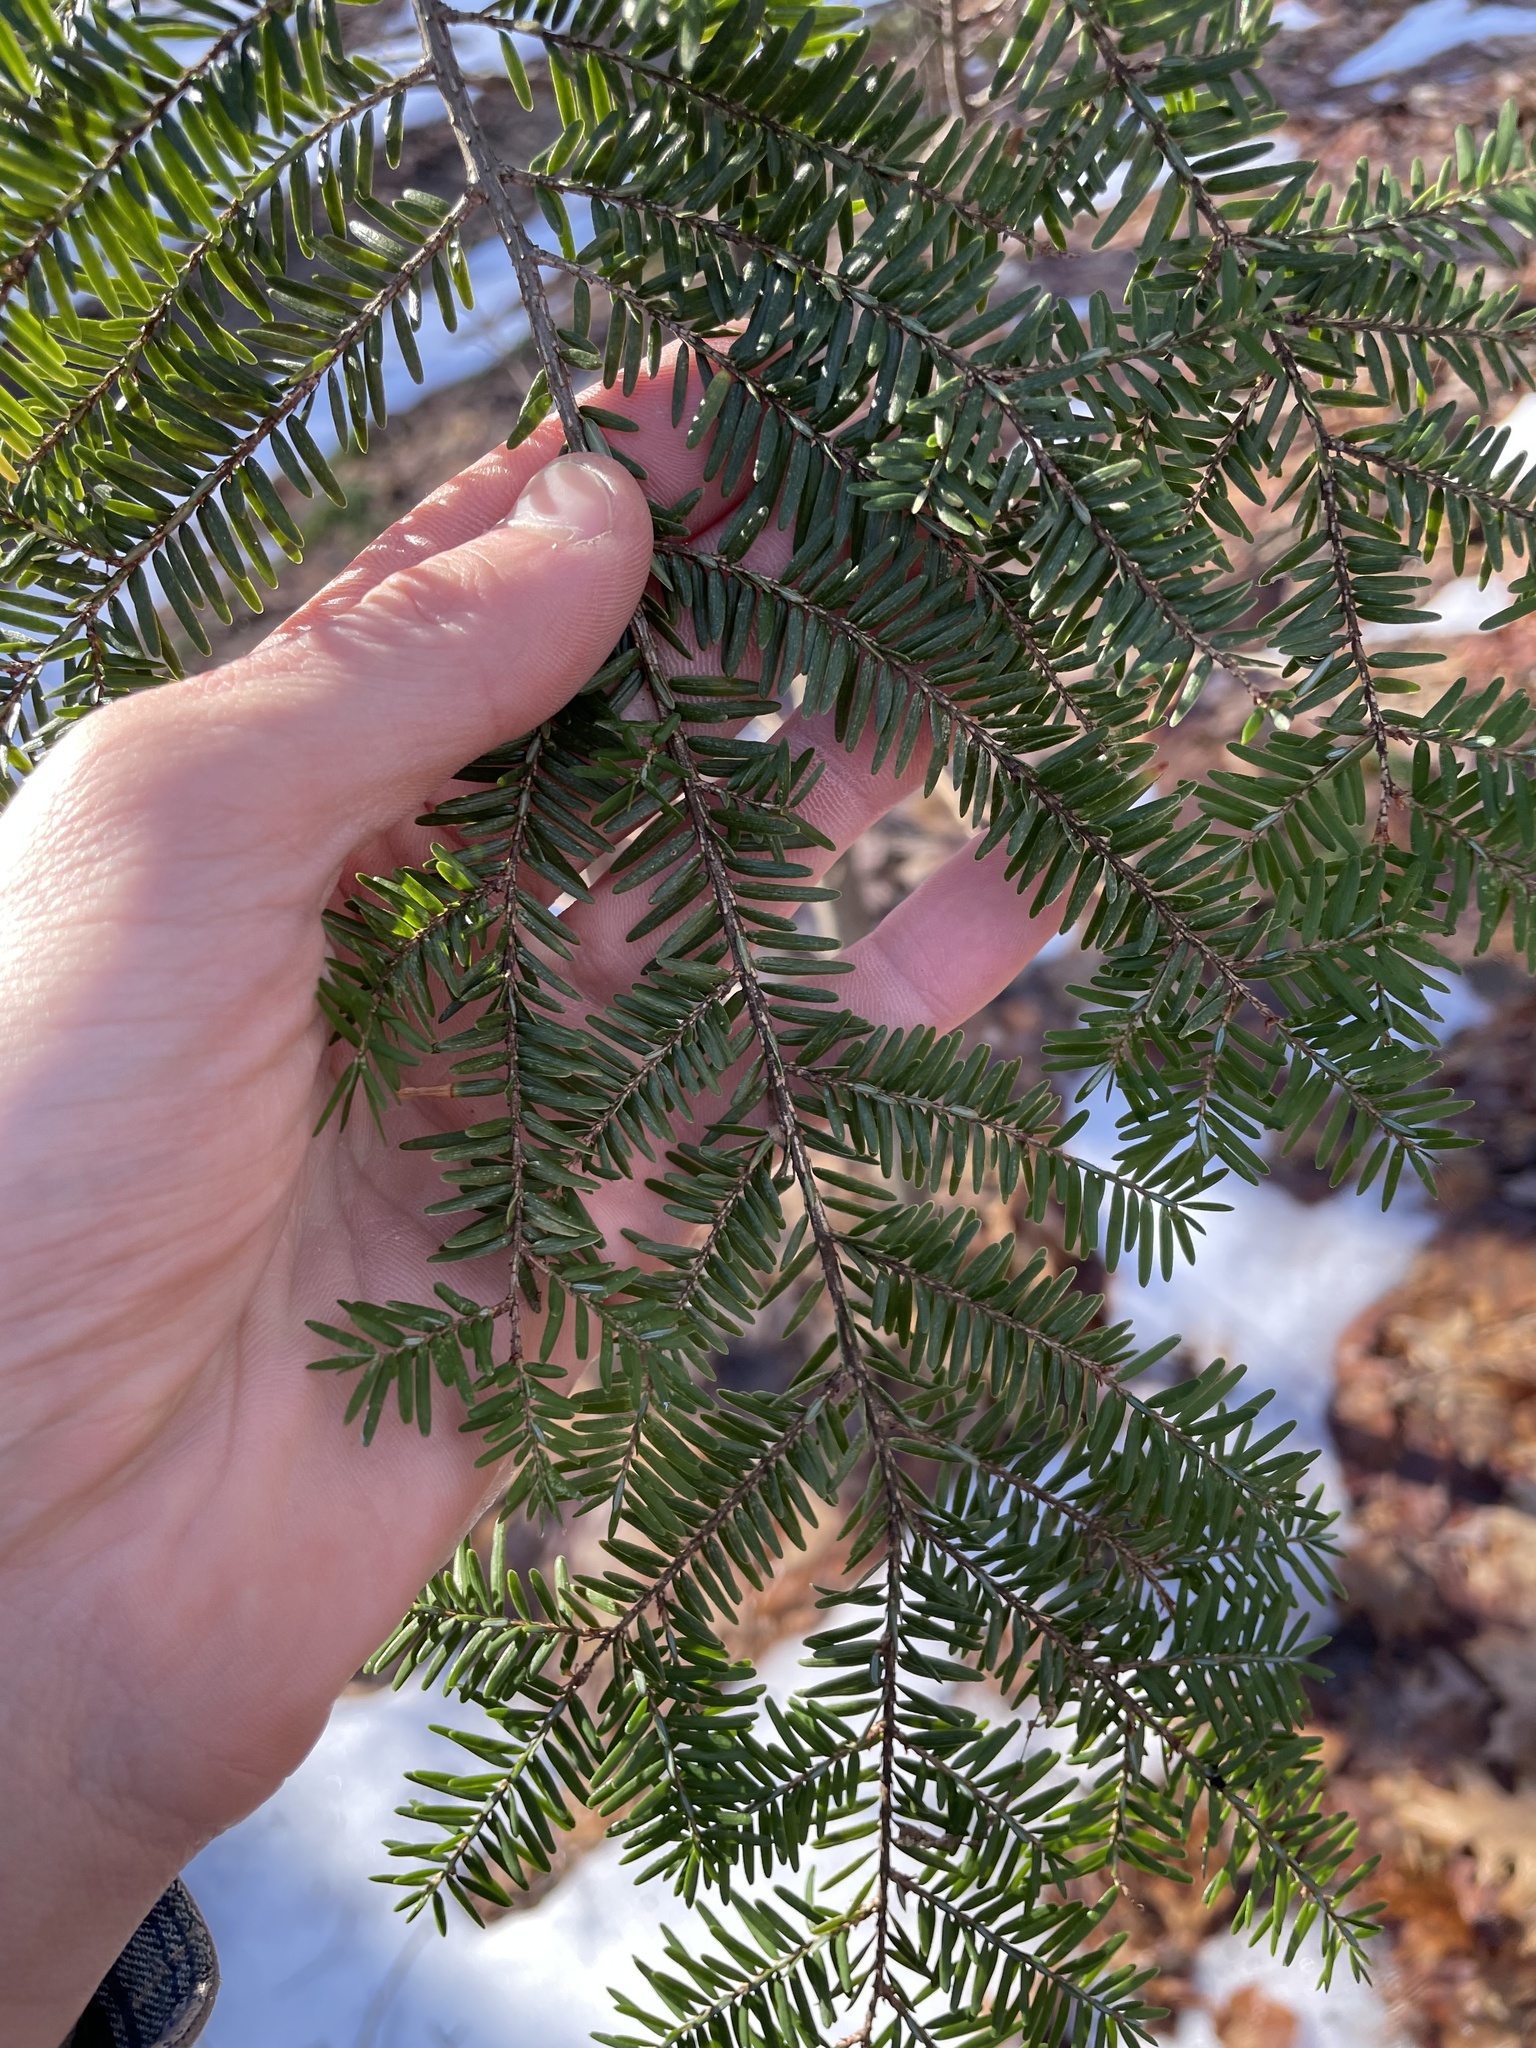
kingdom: Plantae
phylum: Tracheophyta
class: Pinopsida
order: Pinales
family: Pinaceae
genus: Tsuga
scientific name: Tsuga canadensis
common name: Eastern hemlock
